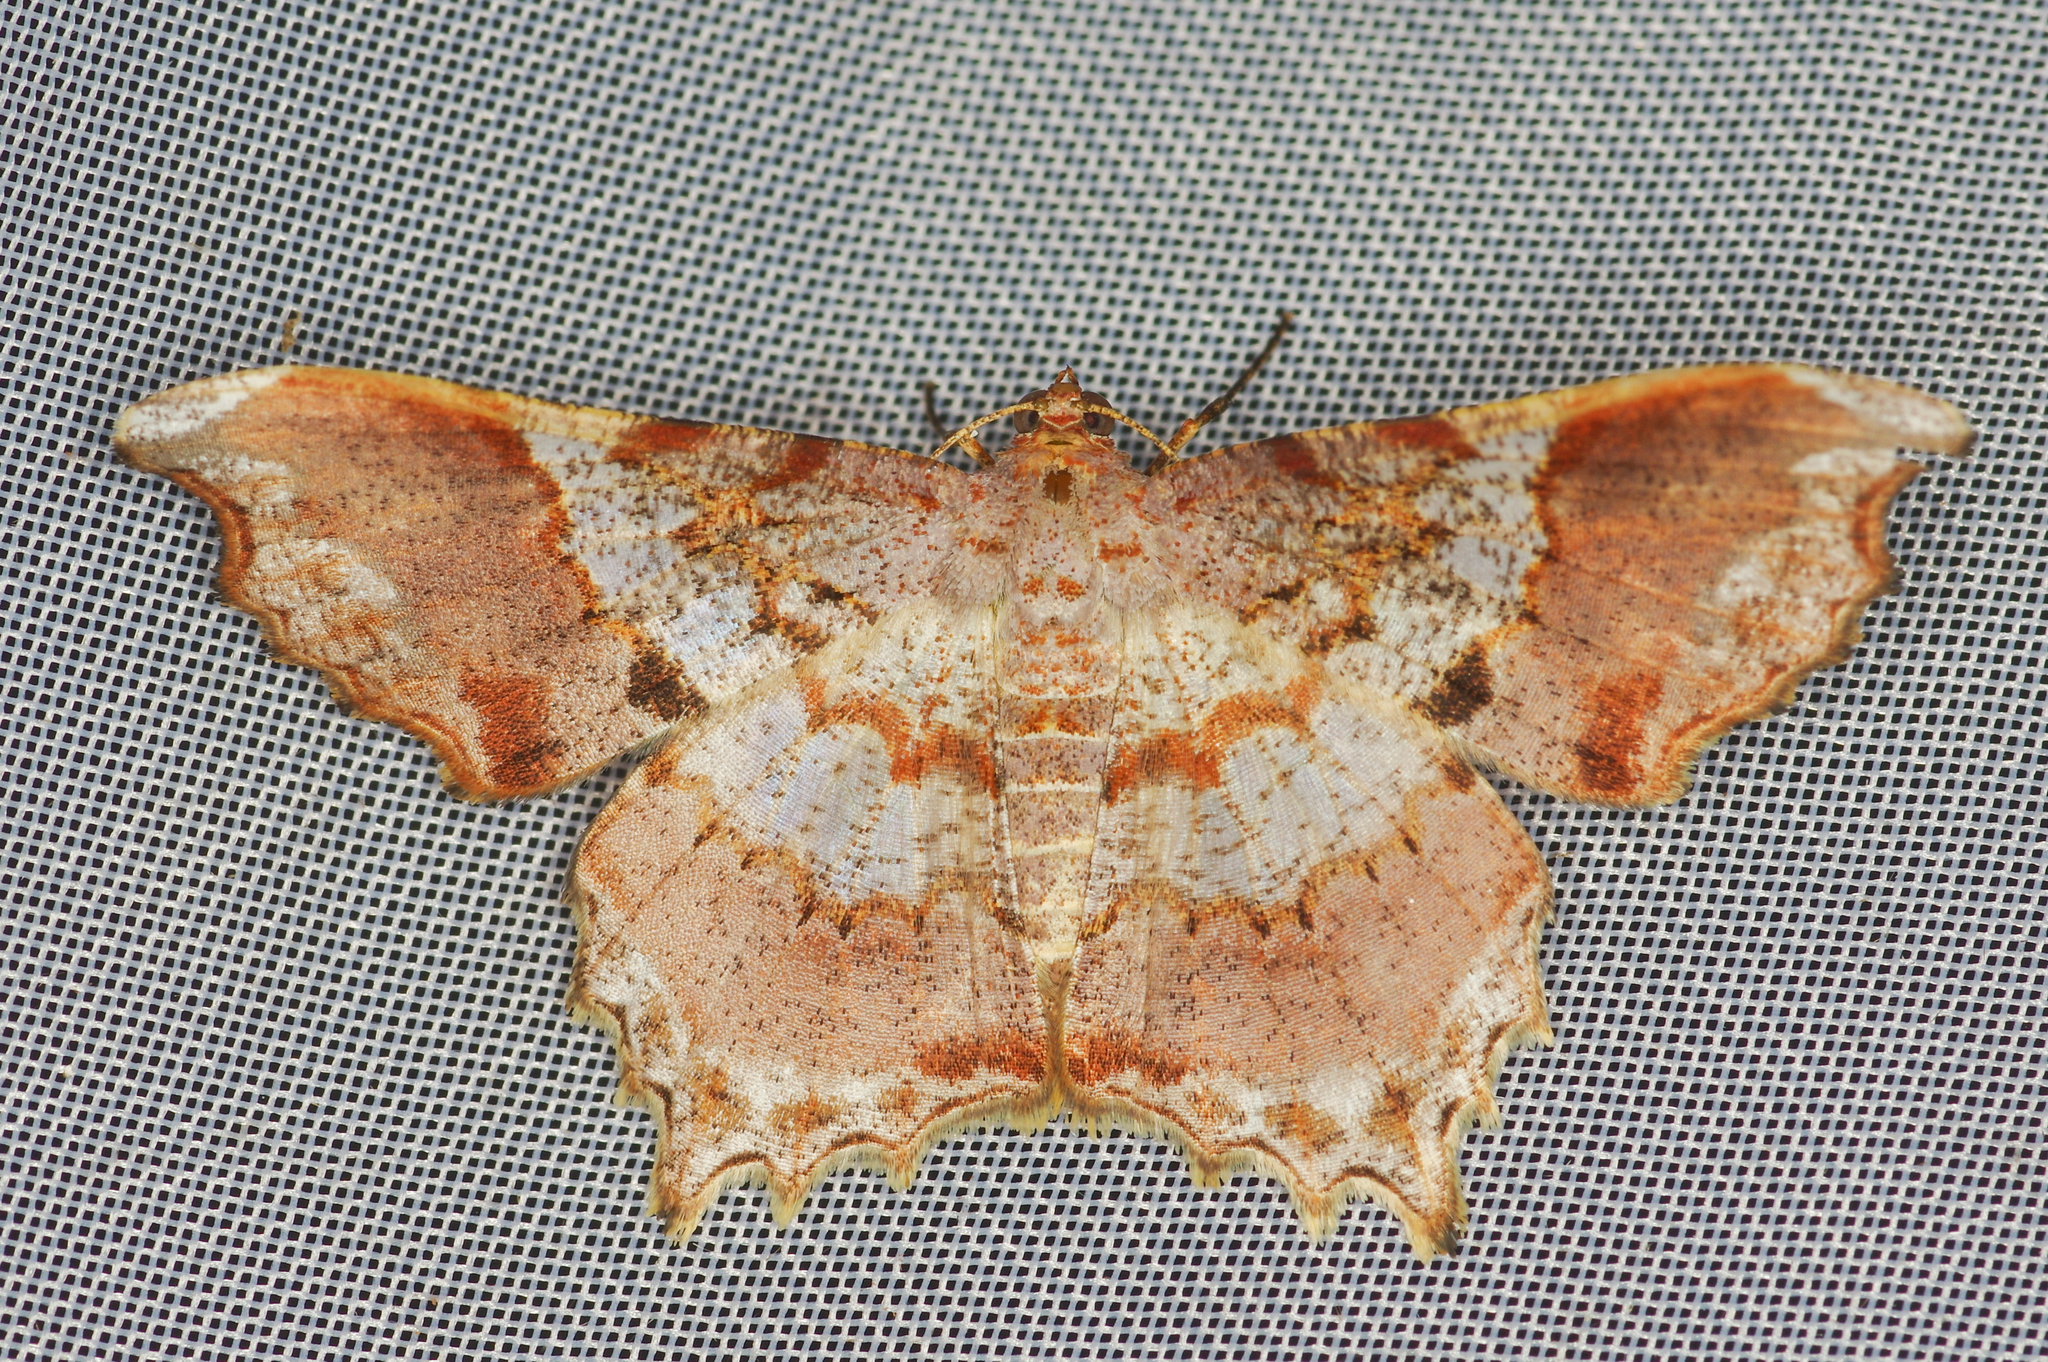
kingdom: Animalia
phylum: Arthropoda
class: Insecta
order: Lepidoptera
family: Geometridae
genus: Semiothisa
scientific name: Semiothisa
